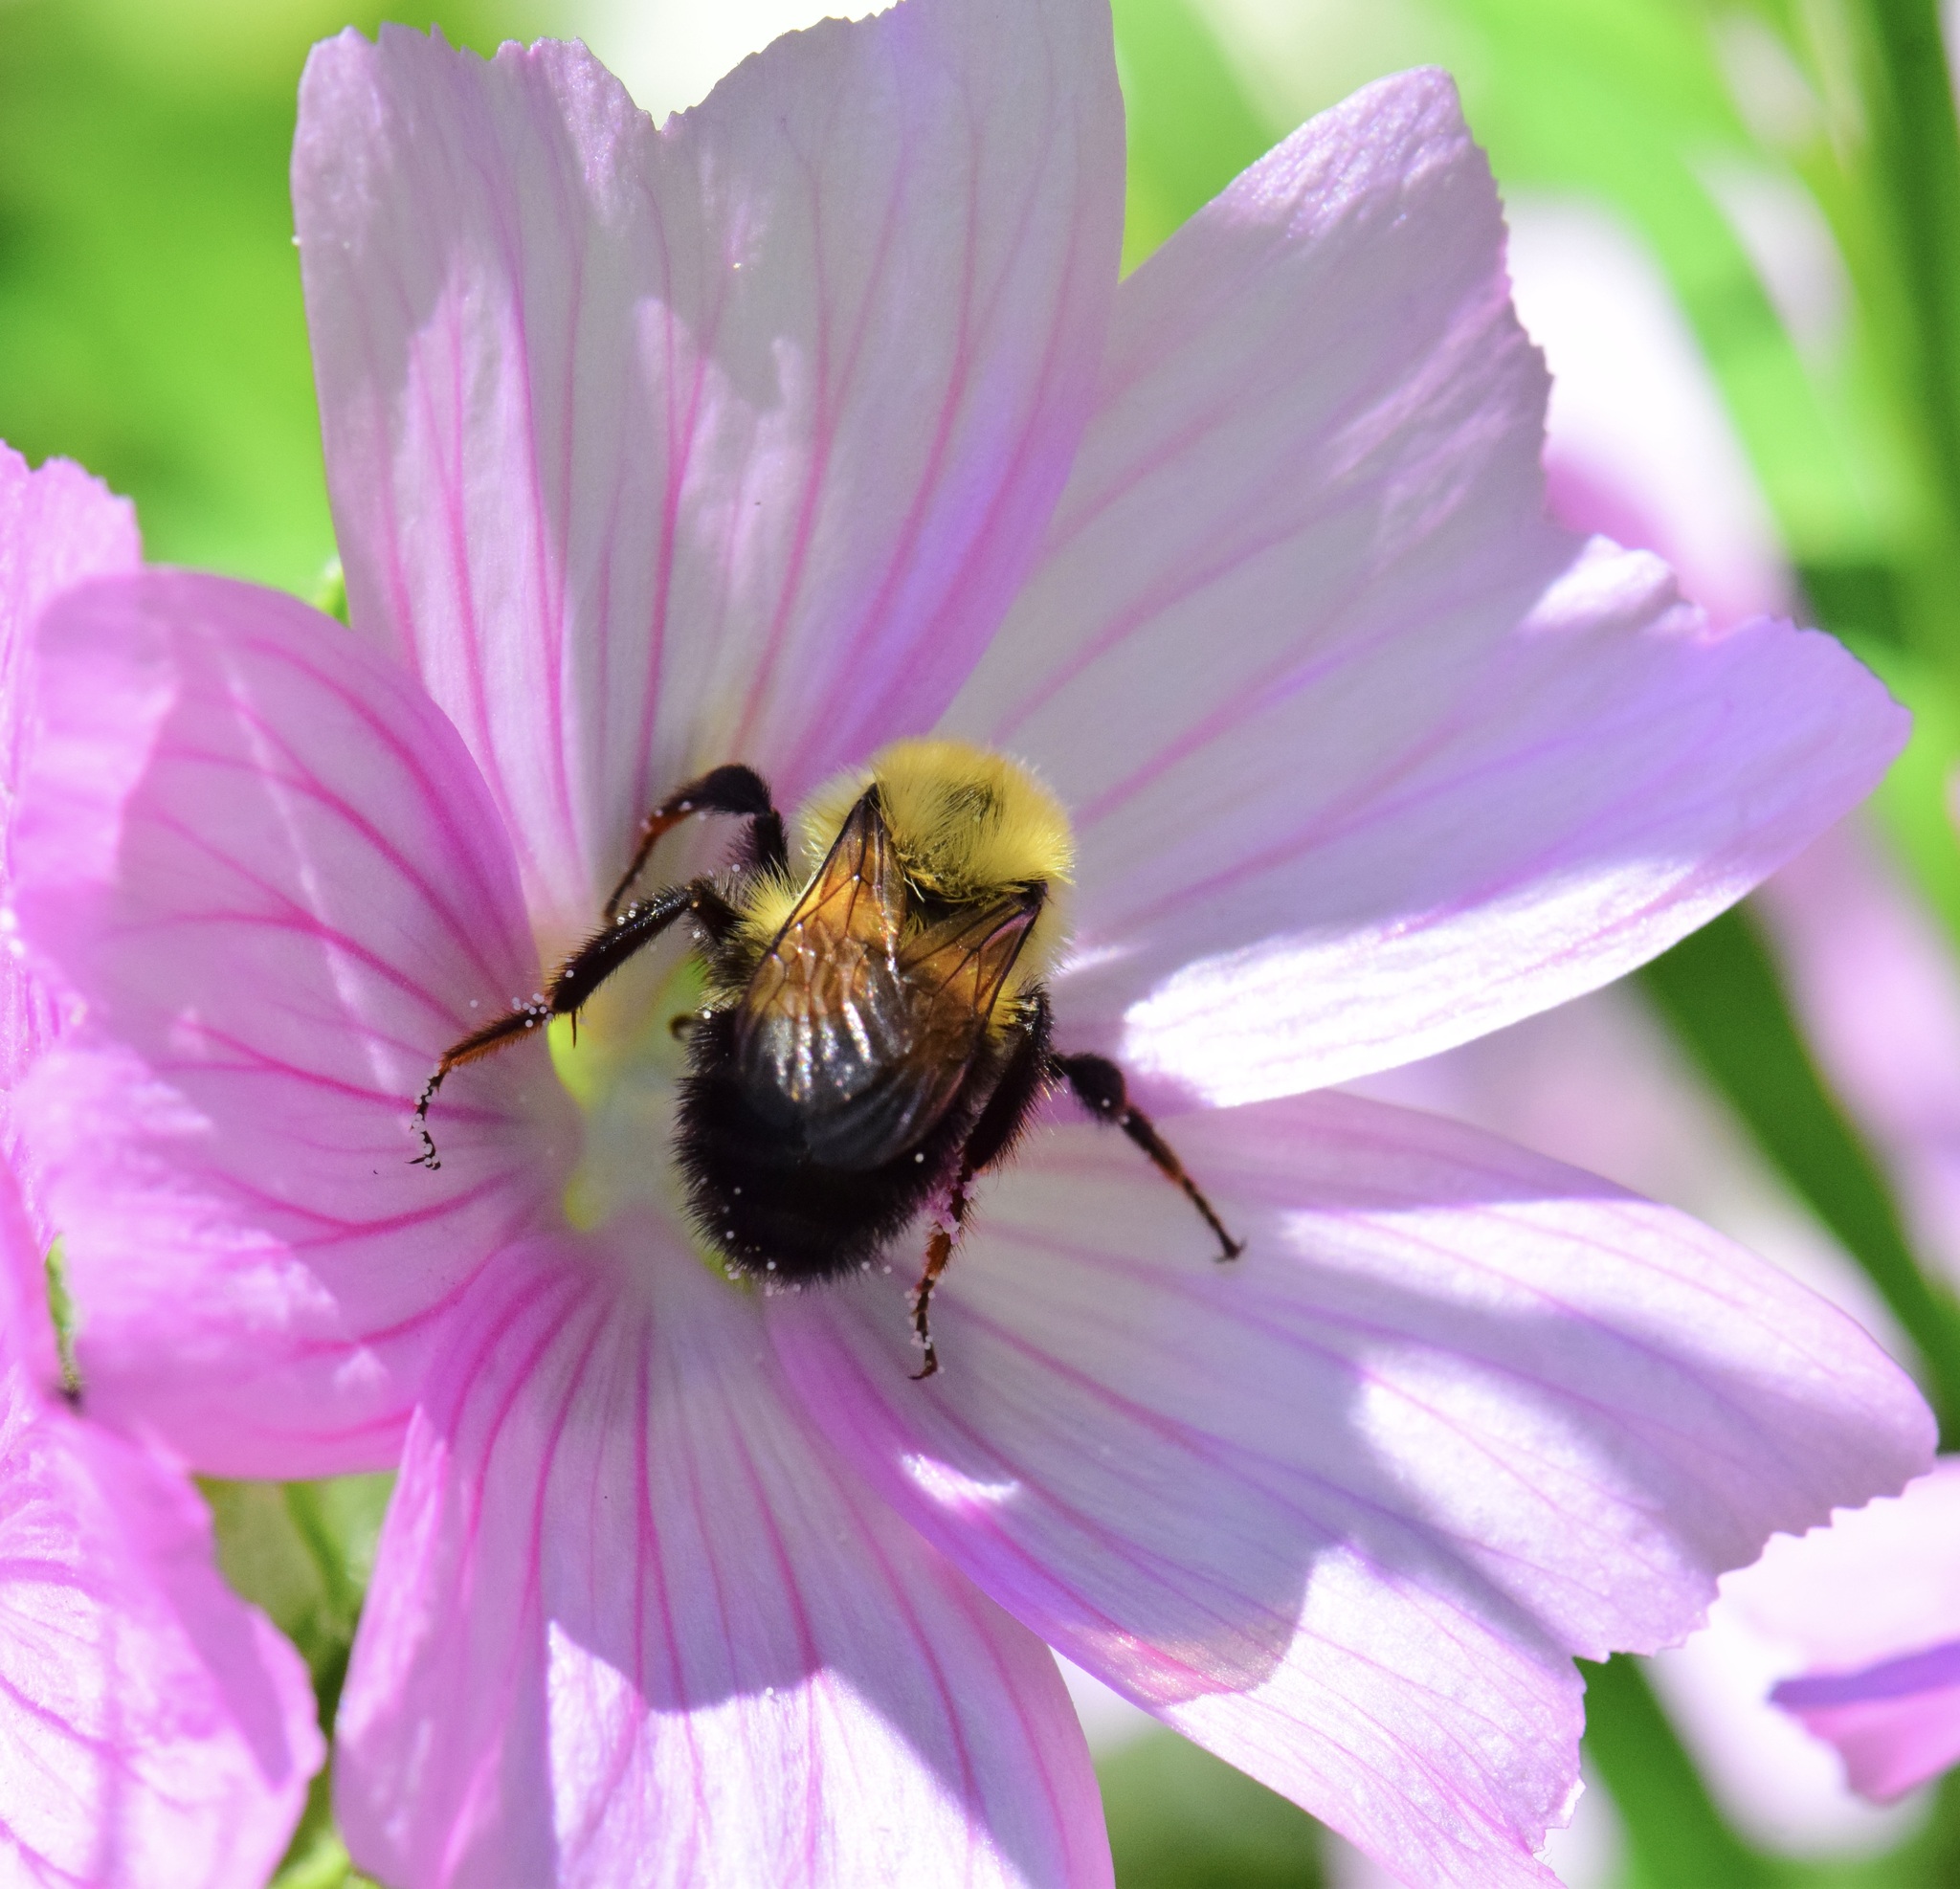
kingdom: Animalia
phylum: Arthropoda
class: Insecta
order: Hymenoptera
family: Apidae
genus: Bombus
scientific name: Bombus bimaculatus
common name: Two-spotted bumble bee
